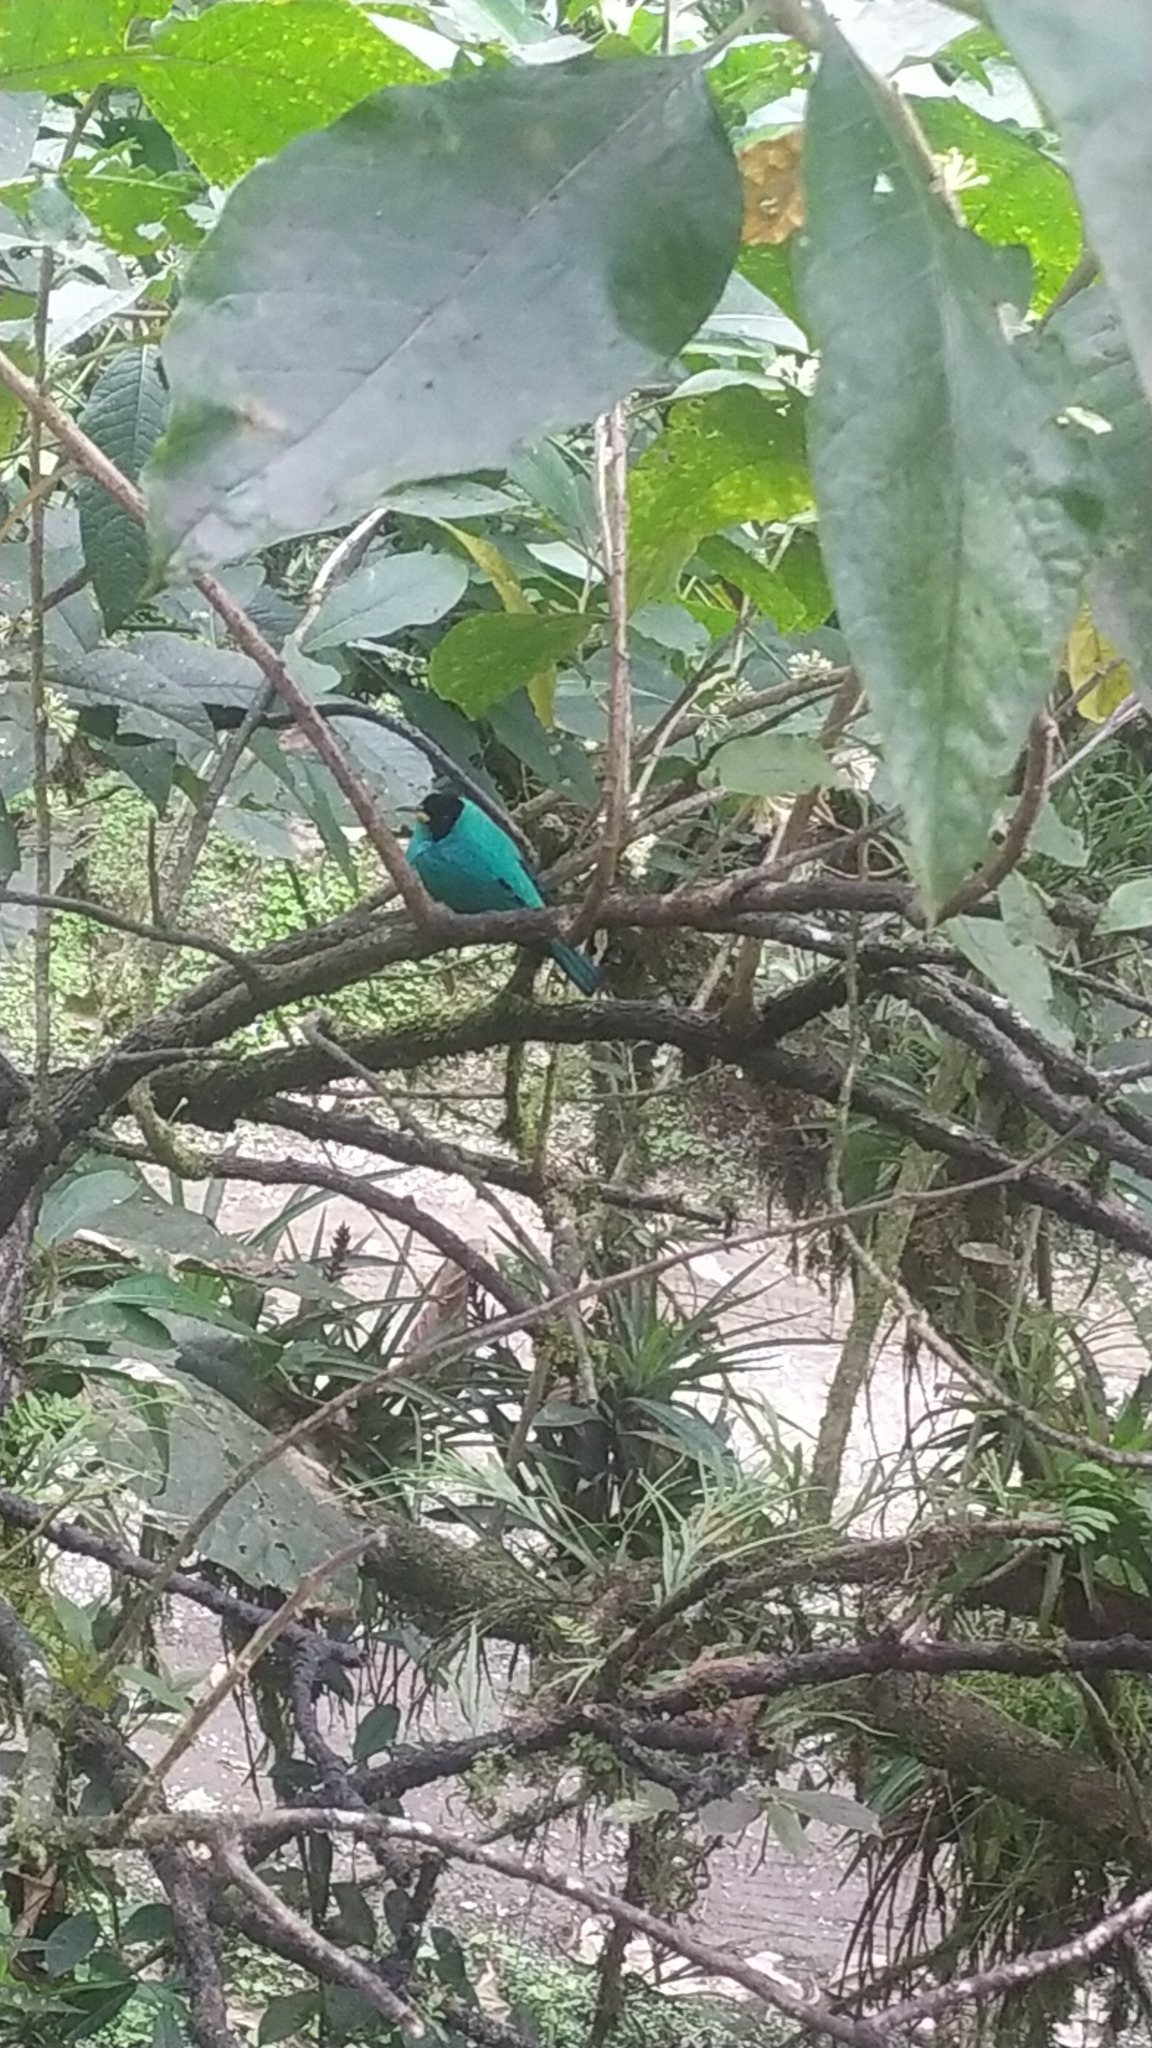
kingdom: Animalia
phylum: Chordata
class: Aves
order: Passeriformes
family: Thraupidae
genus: Chlorophanes
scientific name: Chlorophanes spiza
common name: Green honeycreeper
